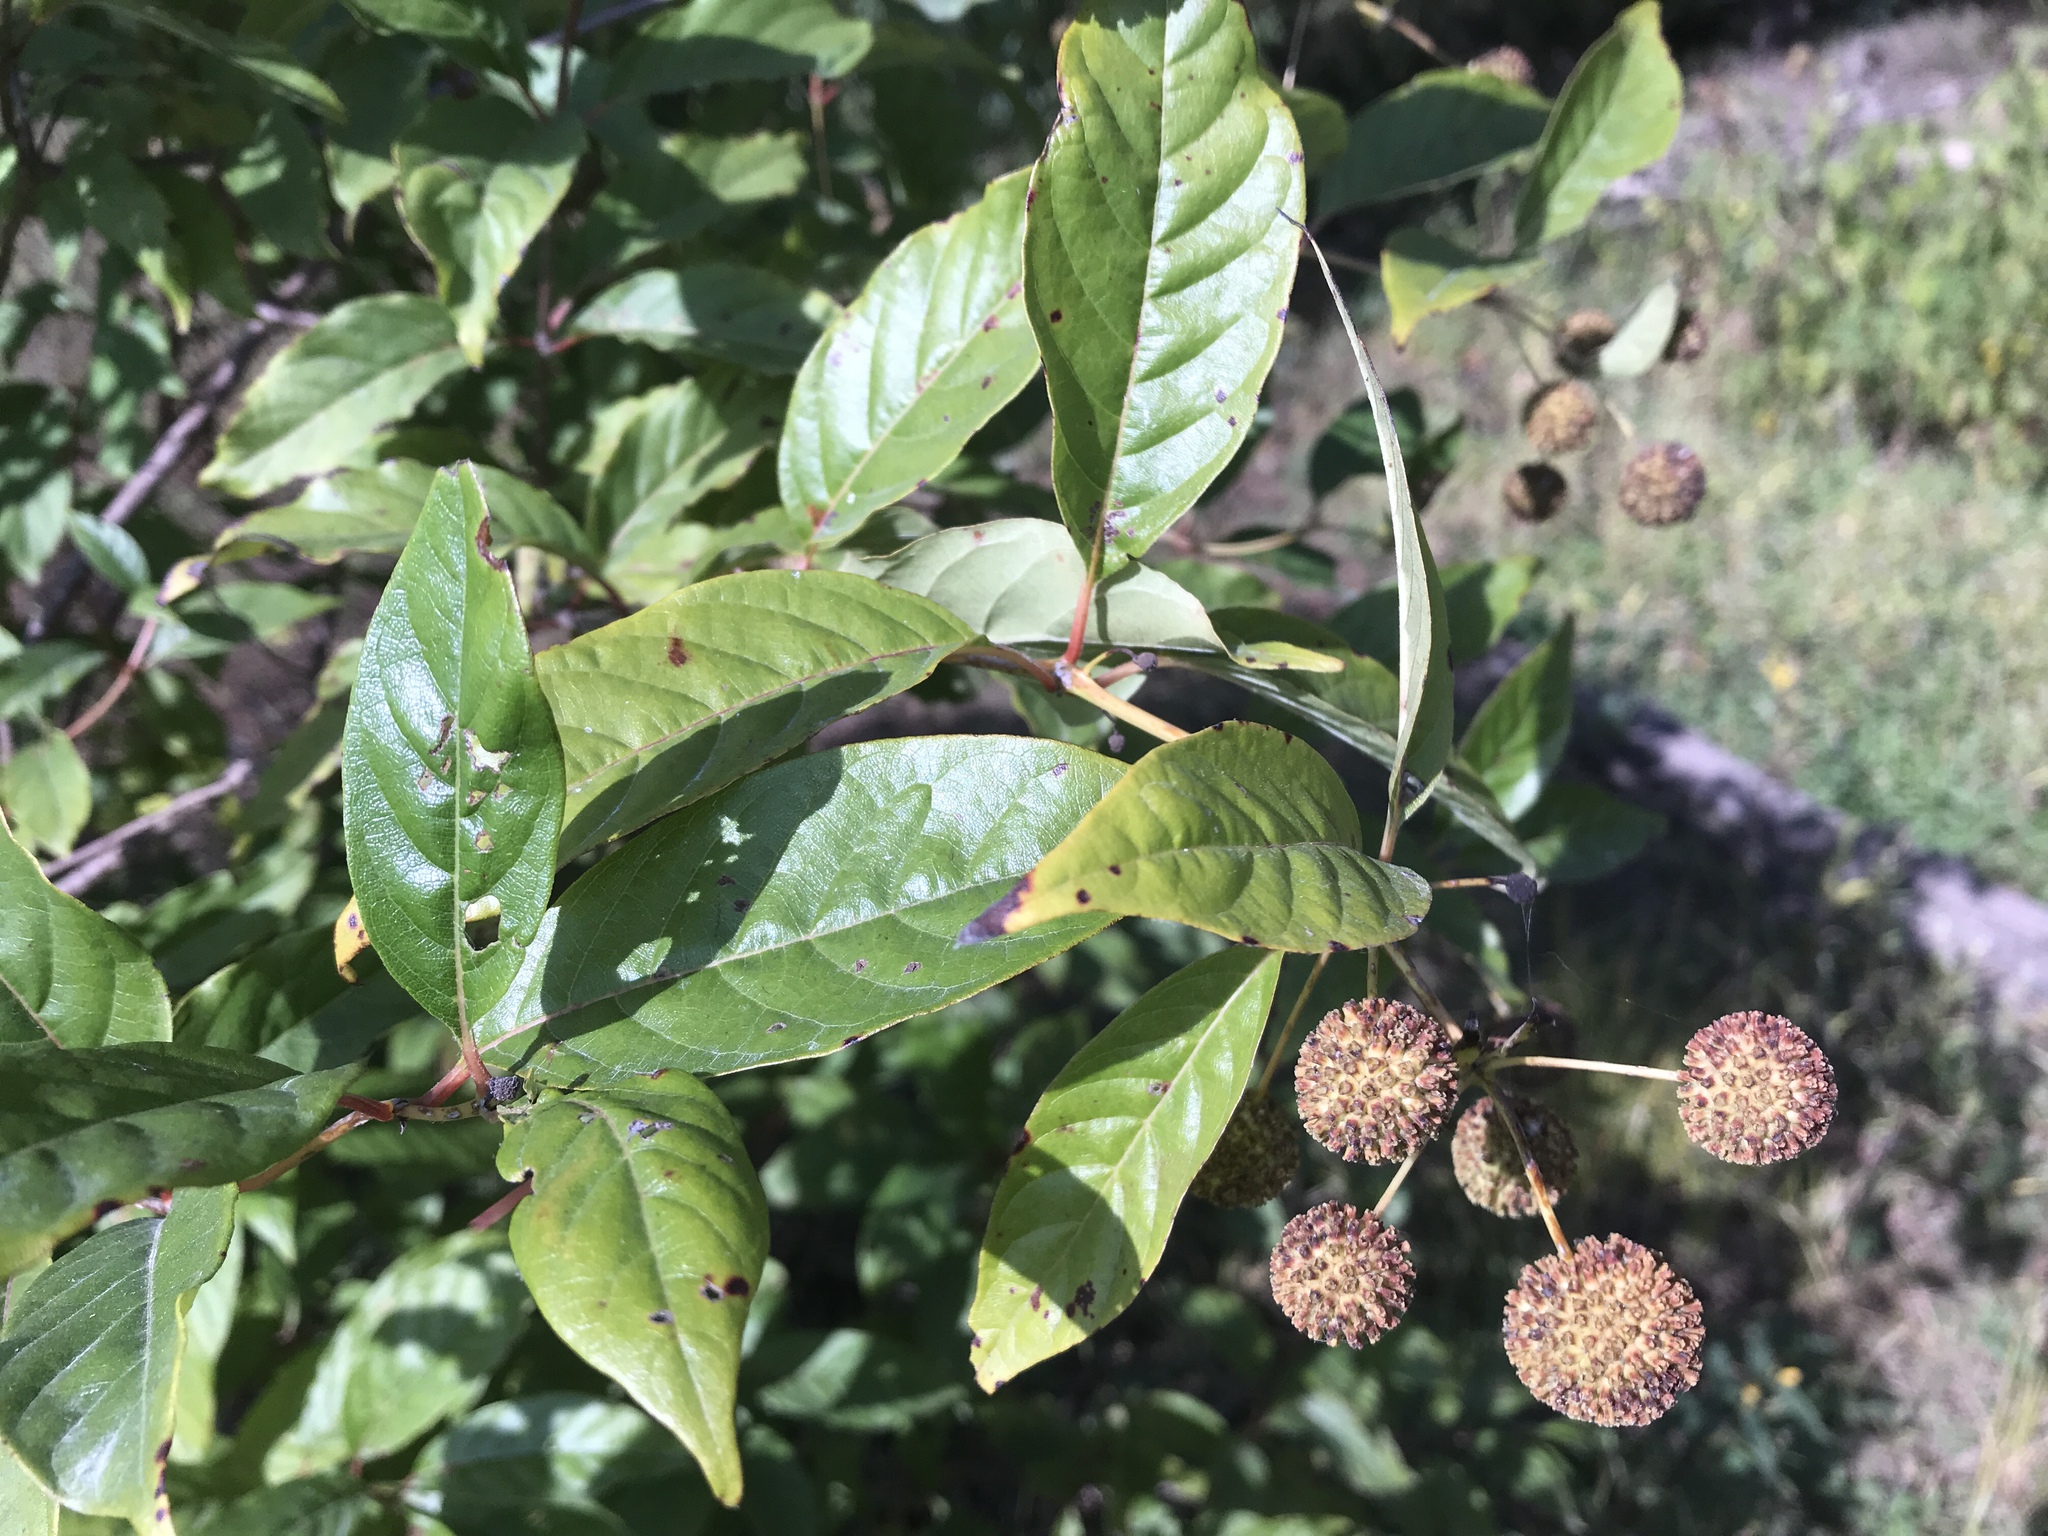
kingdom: Plantae
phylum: Tracheophyta
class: Magnoliopsida
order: Gentianales
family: Rubiaceae
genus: Cephalanthus
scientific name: Cephalanthus occidentalis
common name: Button-willow
